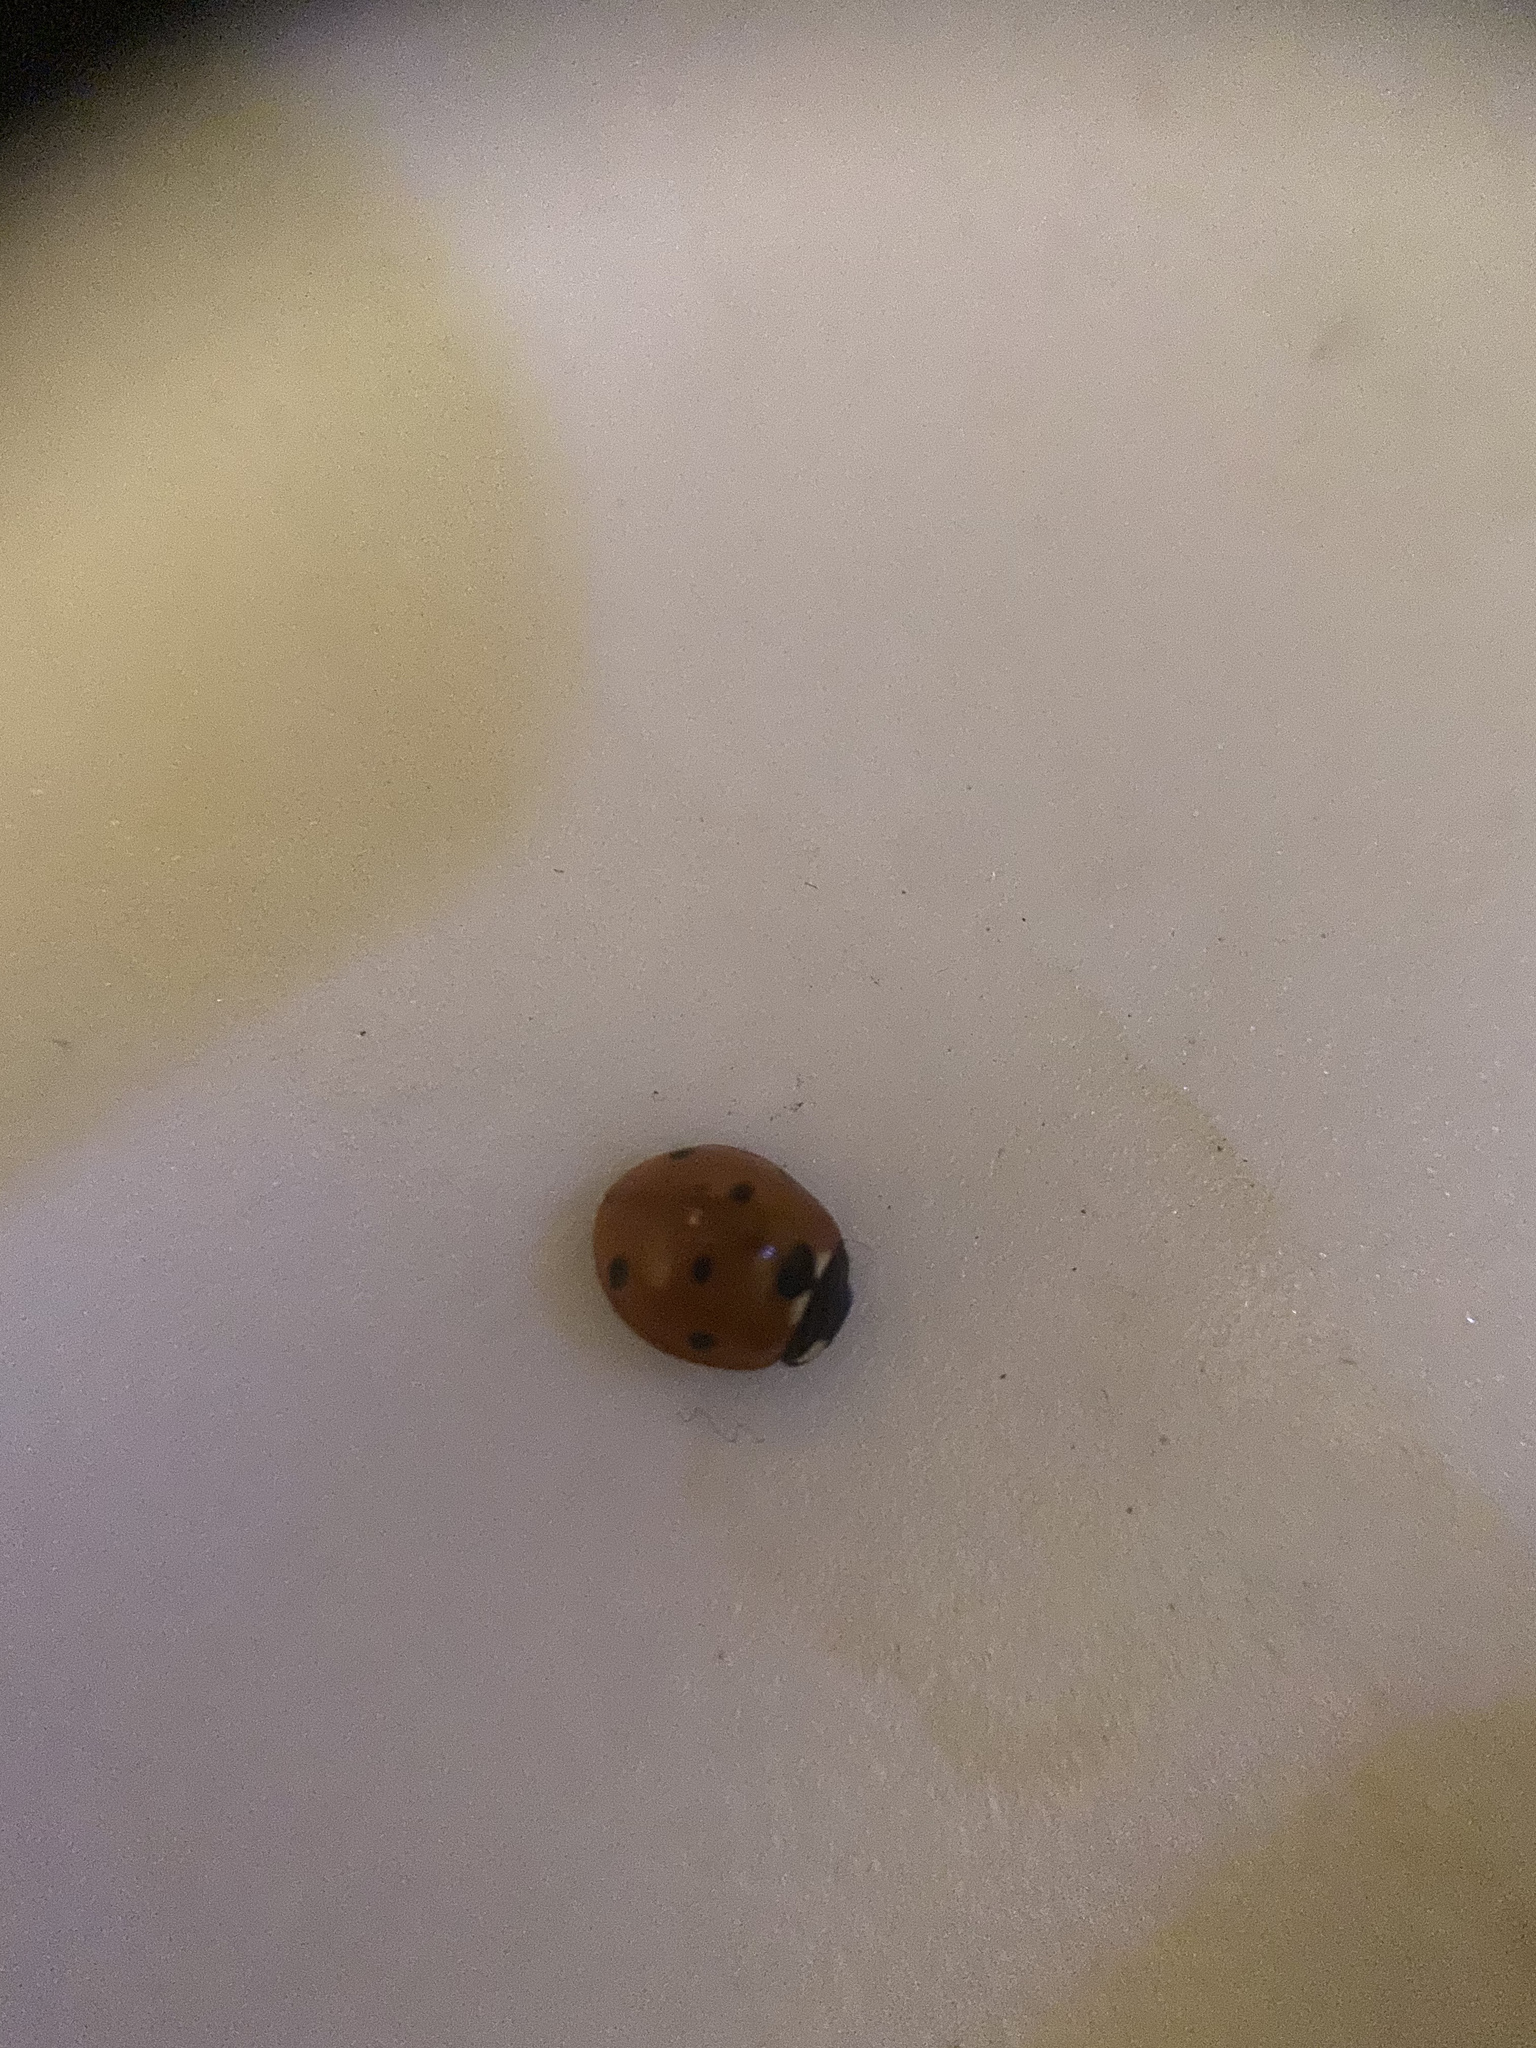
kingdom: Animalia
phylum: Arthropoda
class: Insecta
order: Coleoptera
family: Coccinellidae
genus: Coccinella
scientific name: Coccinella septempunctata
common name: Sevenspotted lady beetle
